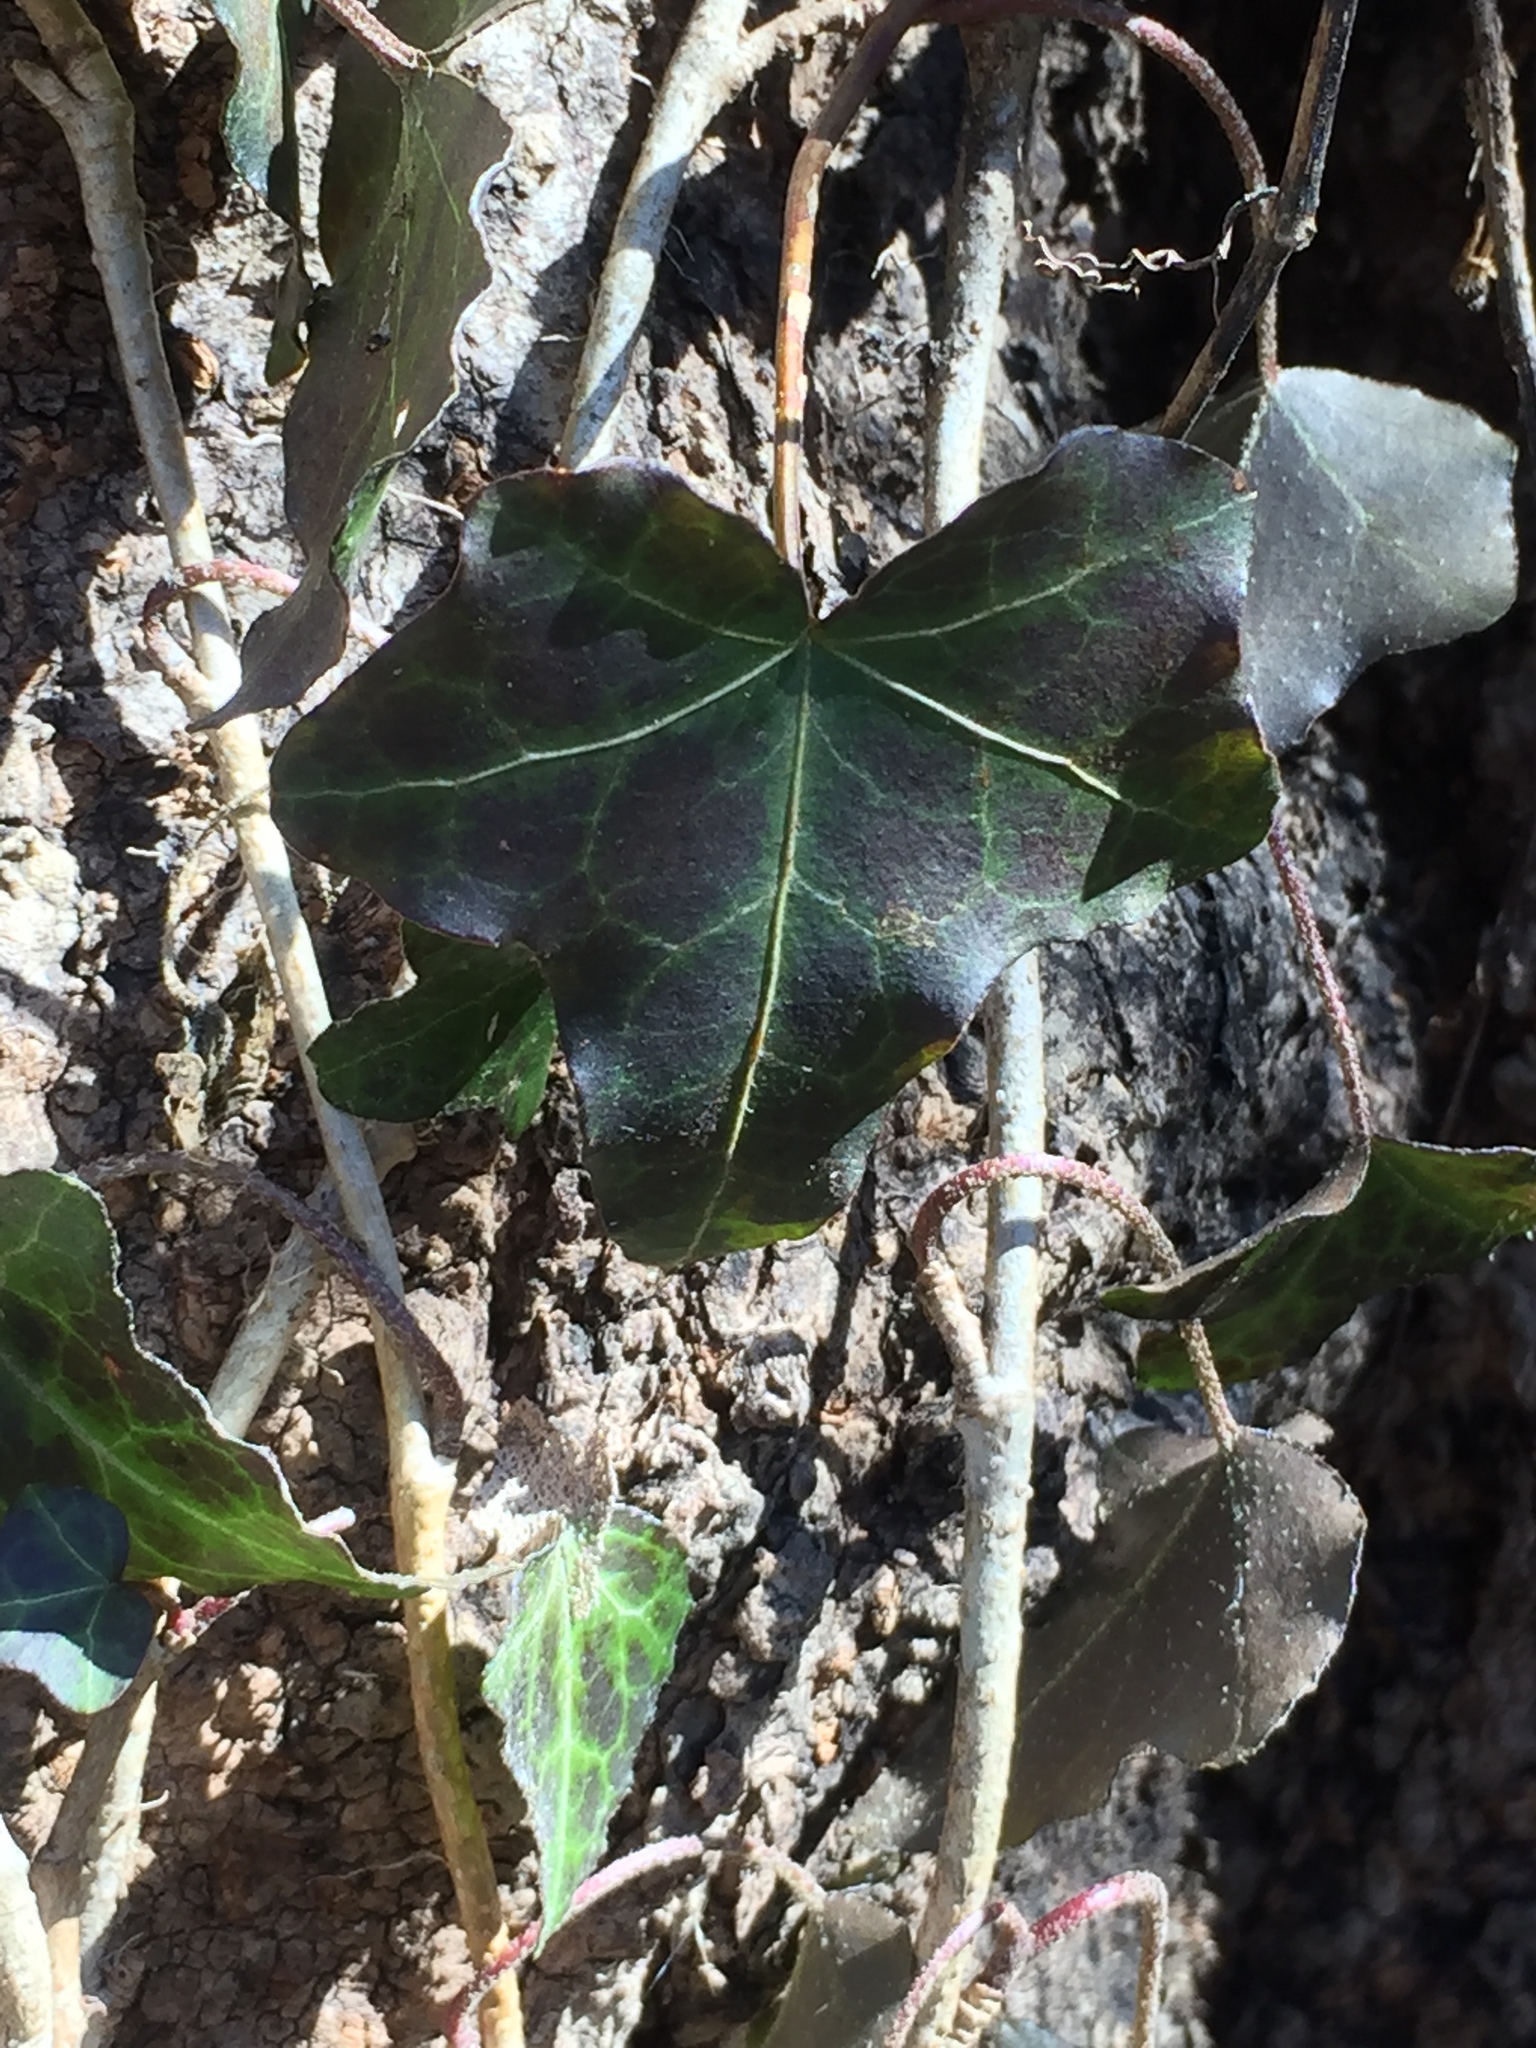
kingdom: Plantae
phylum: Tracheophyta
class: Magnoliopsida
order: Apiales
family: Araliaceae
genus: Hedera
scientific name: Hedera helix
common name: Ivy
